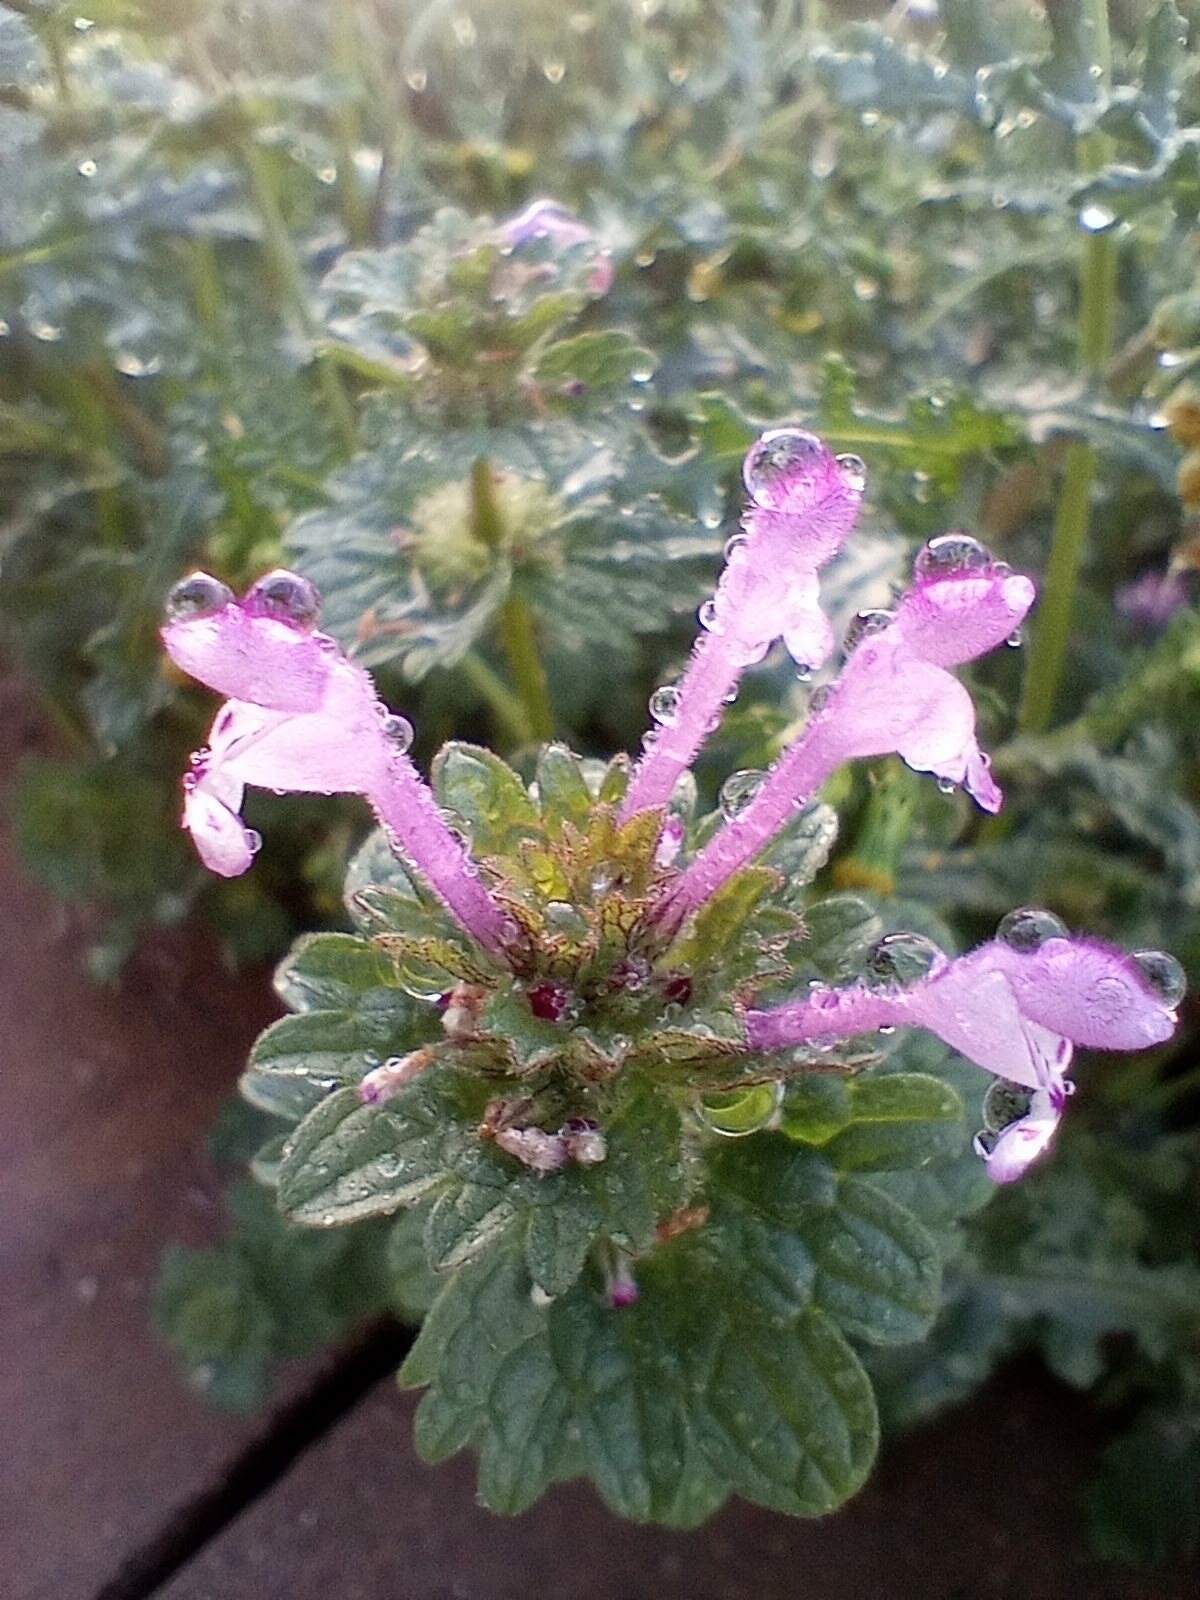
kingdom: Plantae
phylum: Tracheophyta
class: Magnoliopsida
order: Lamiales
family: Lamiaceae
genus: Lamium
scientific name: Lamium amplexicaule
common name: Henbit dead-nettle
